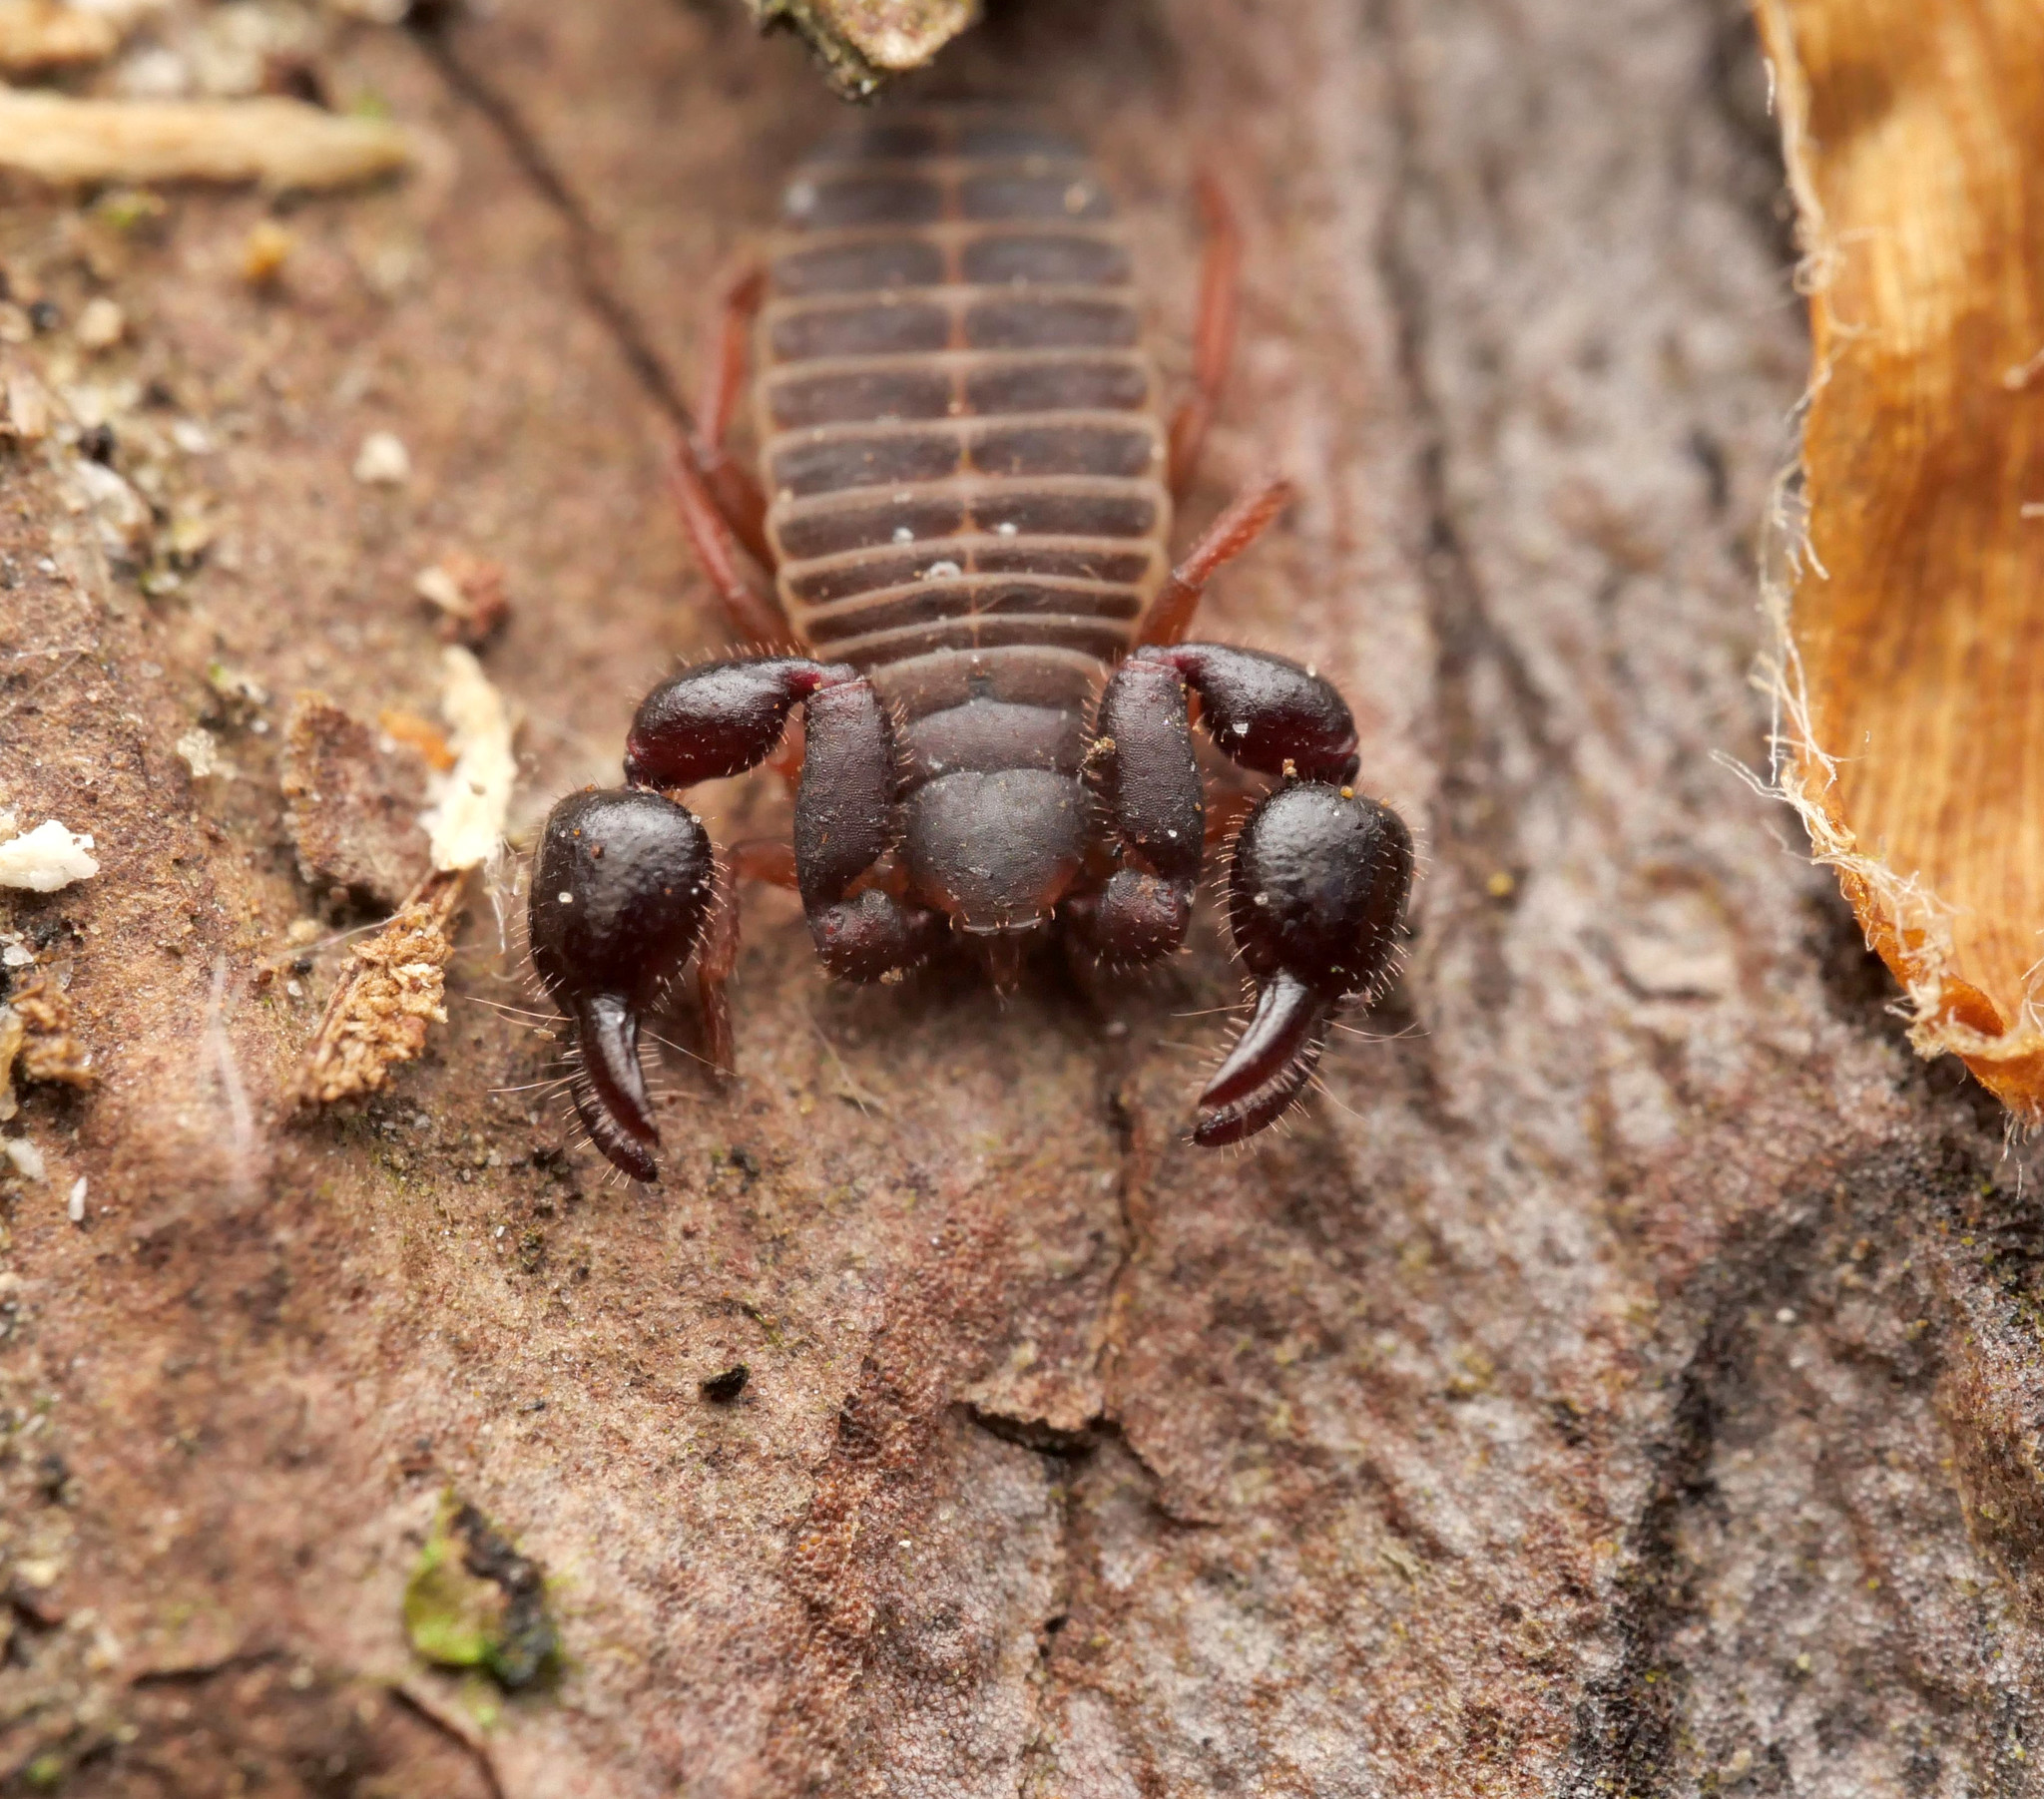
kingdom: Animalia
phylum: Arthropoda
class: Arachnida
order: Pseudoscorpiones
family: Chernetidae
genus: Dendrochernes
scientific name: Dendrochernes cyrneus
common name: Large tree-chernes
